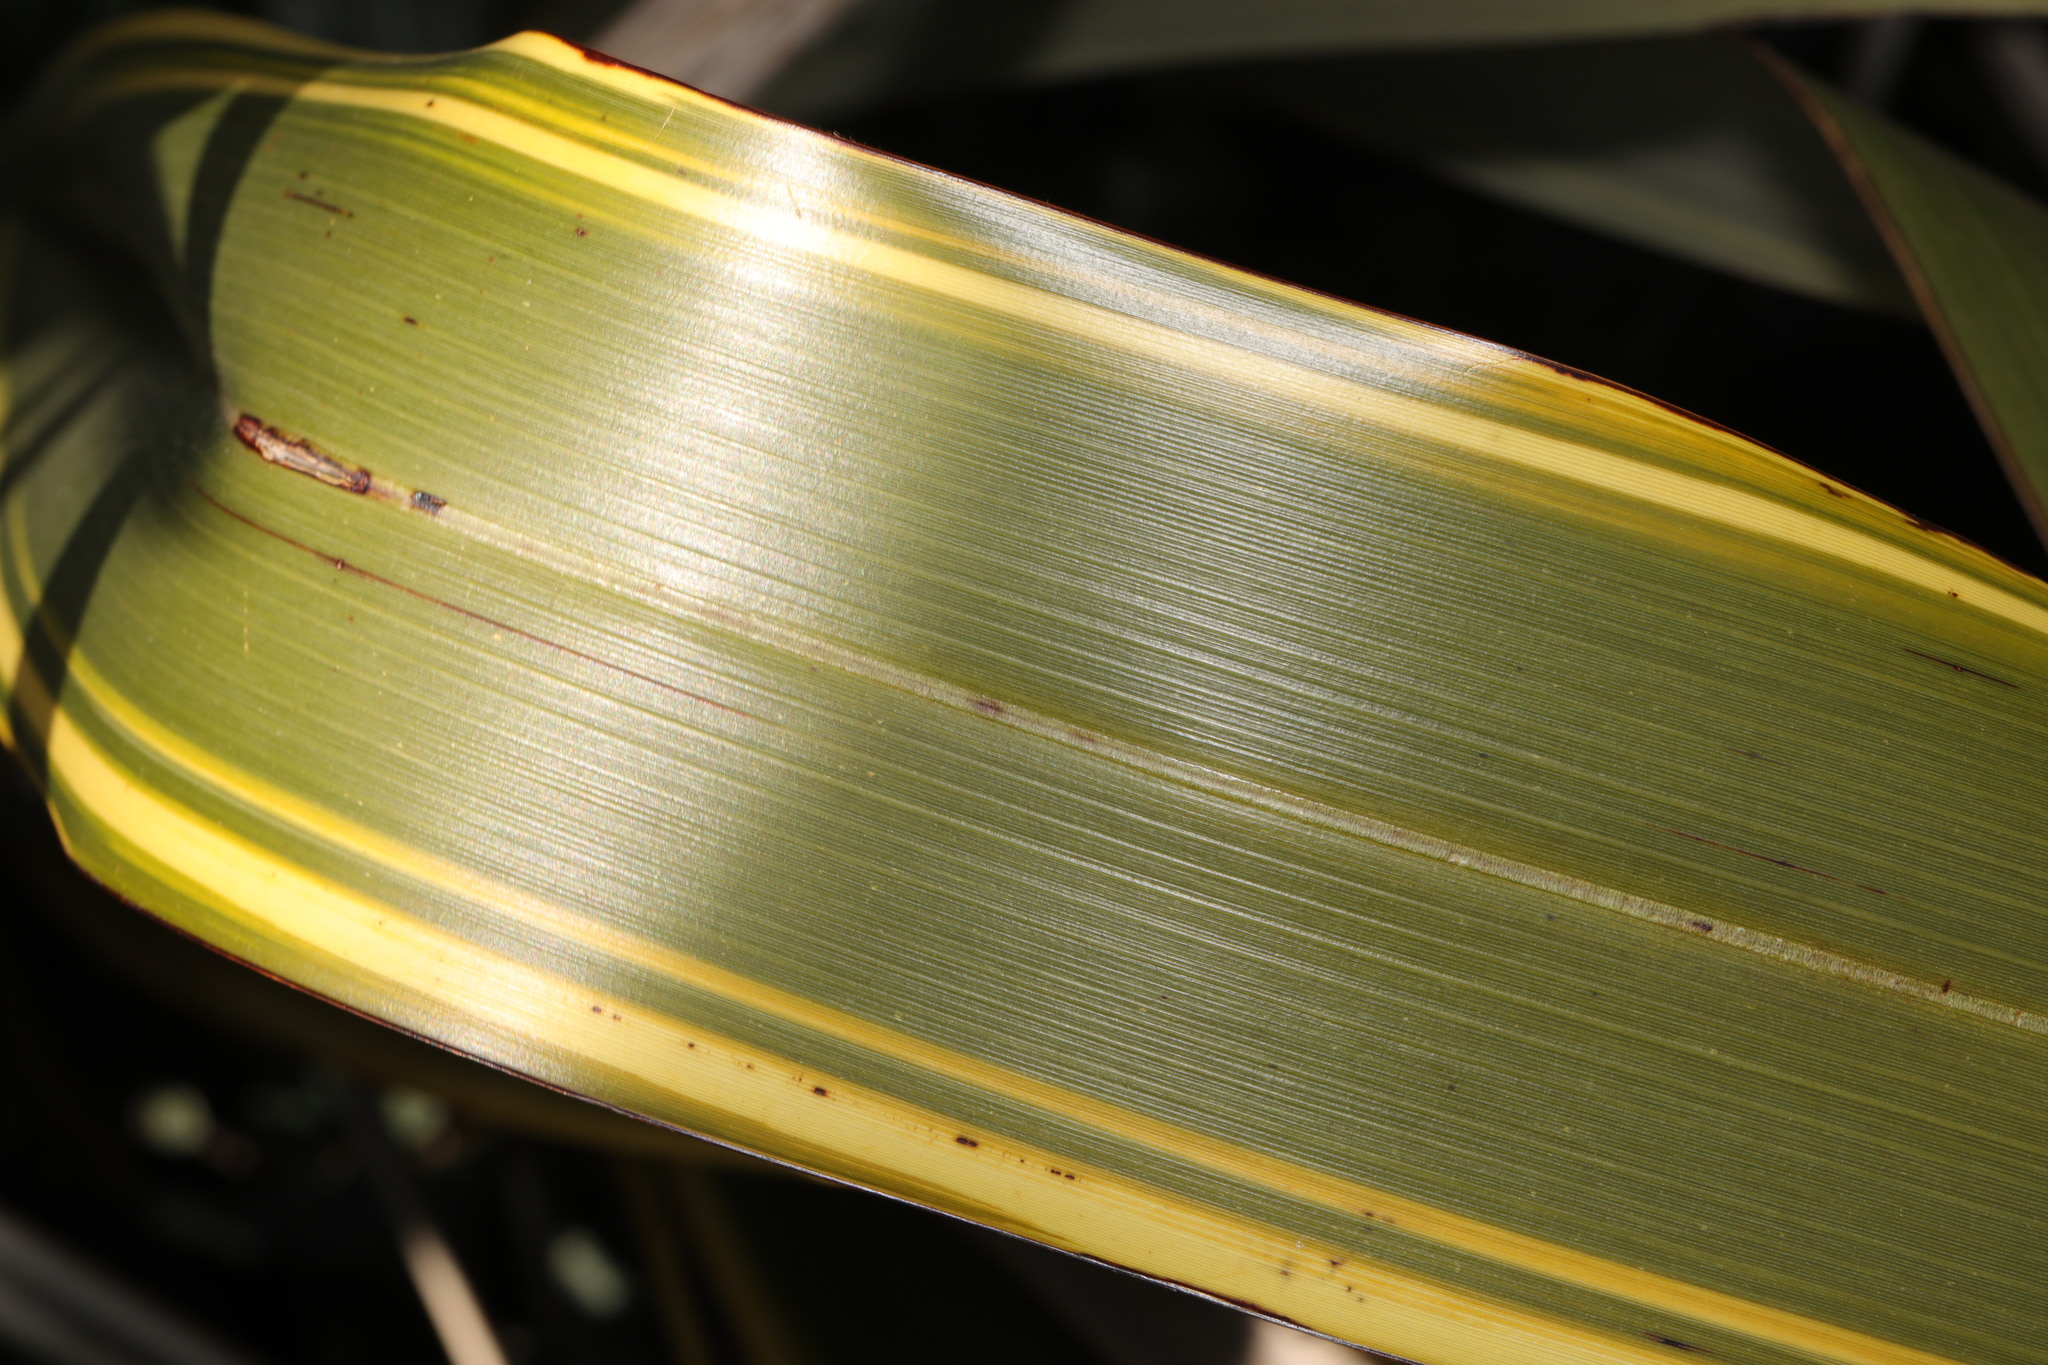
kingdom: Plantae
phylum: Tracheophyta
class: Liliopsida
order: Asparagales
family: Asphodelaceae
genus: Phormium
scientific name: Phormium tenax
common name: New zealand flax
